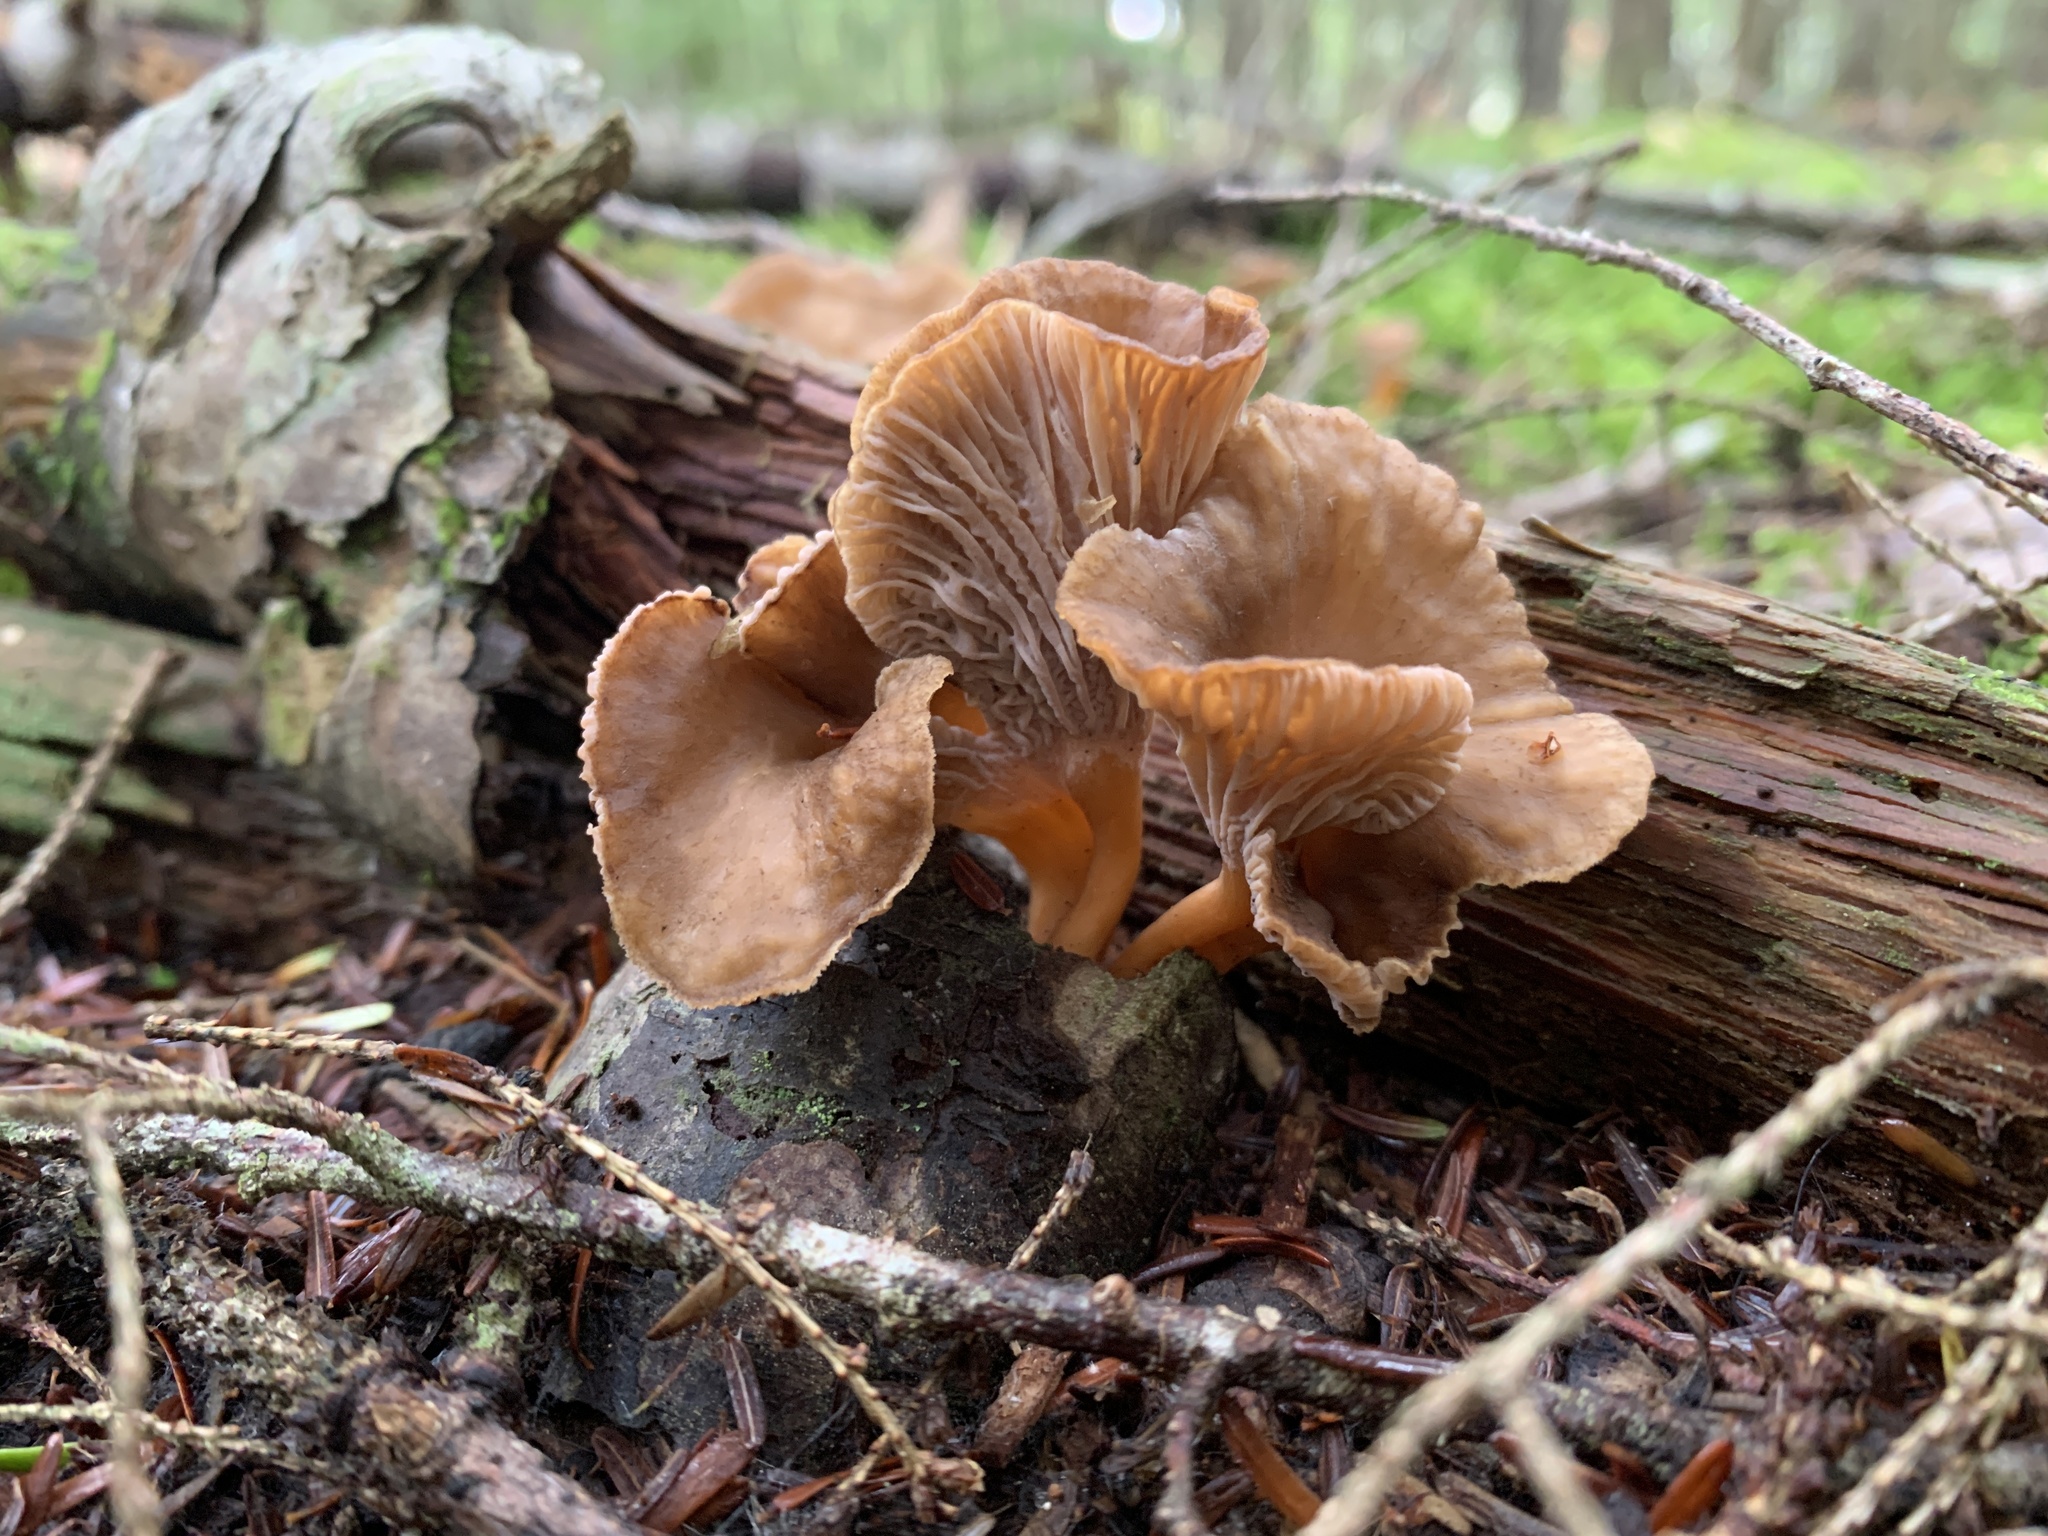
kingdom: Fungi
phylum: Basidiomycota
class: Agaricomycetes
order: Cantharellales
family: Hydnaceae
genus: Craterellus
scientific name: Craterellus tubaeformis
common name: Yellowfoot
